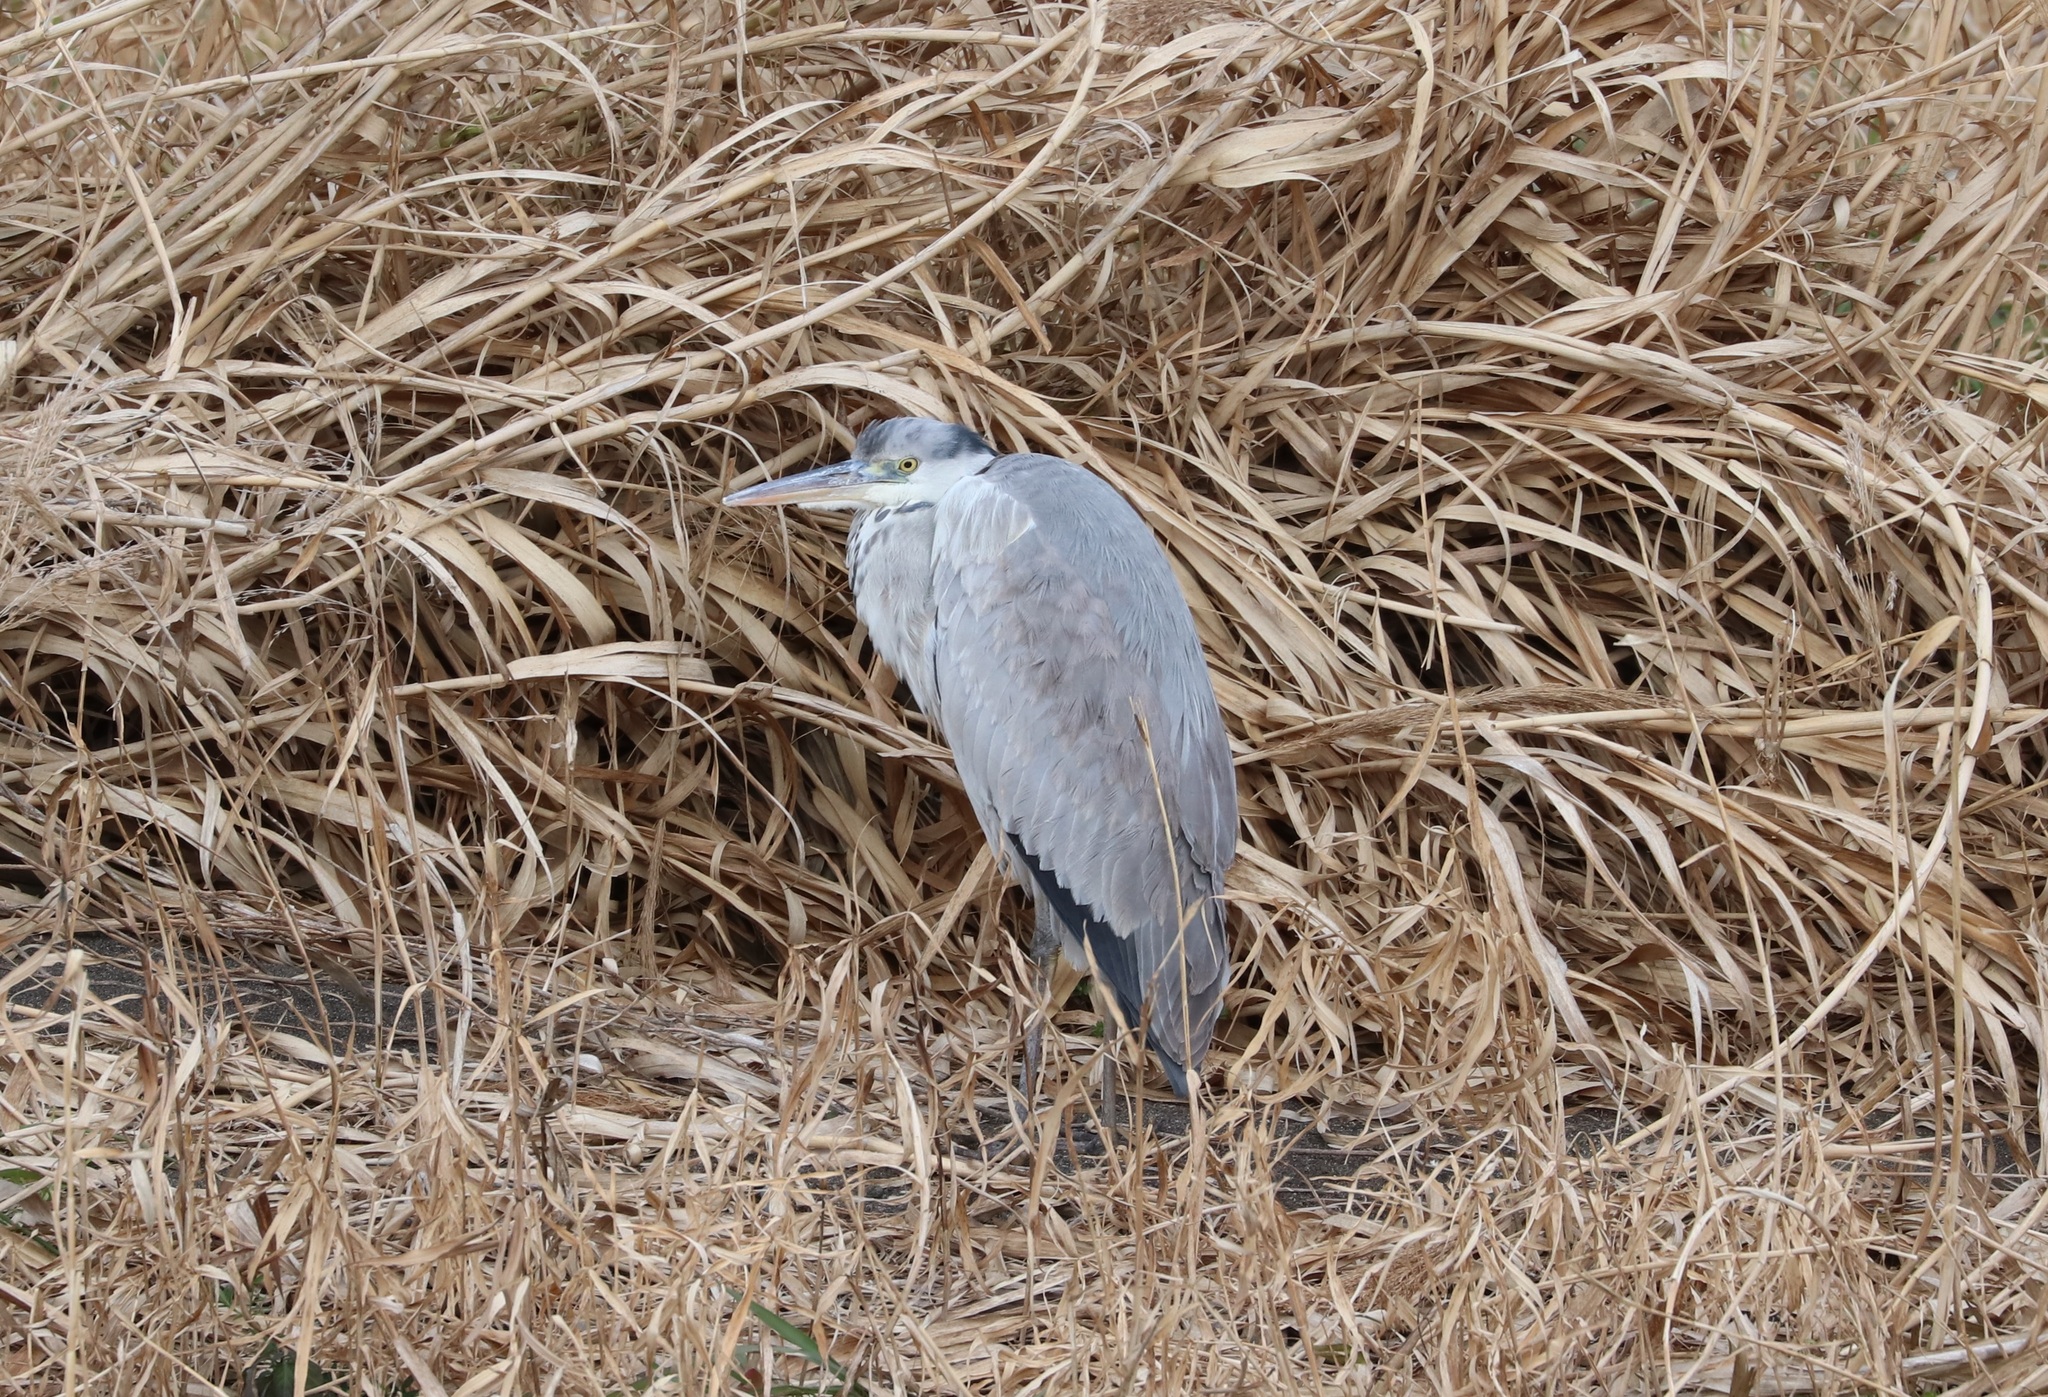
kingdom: Animalia
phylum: Chordata
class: Aves
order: Pelecaniformes
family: Ardeidae
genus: Ardea
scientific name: Ardea cinerea
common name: Grey heron
